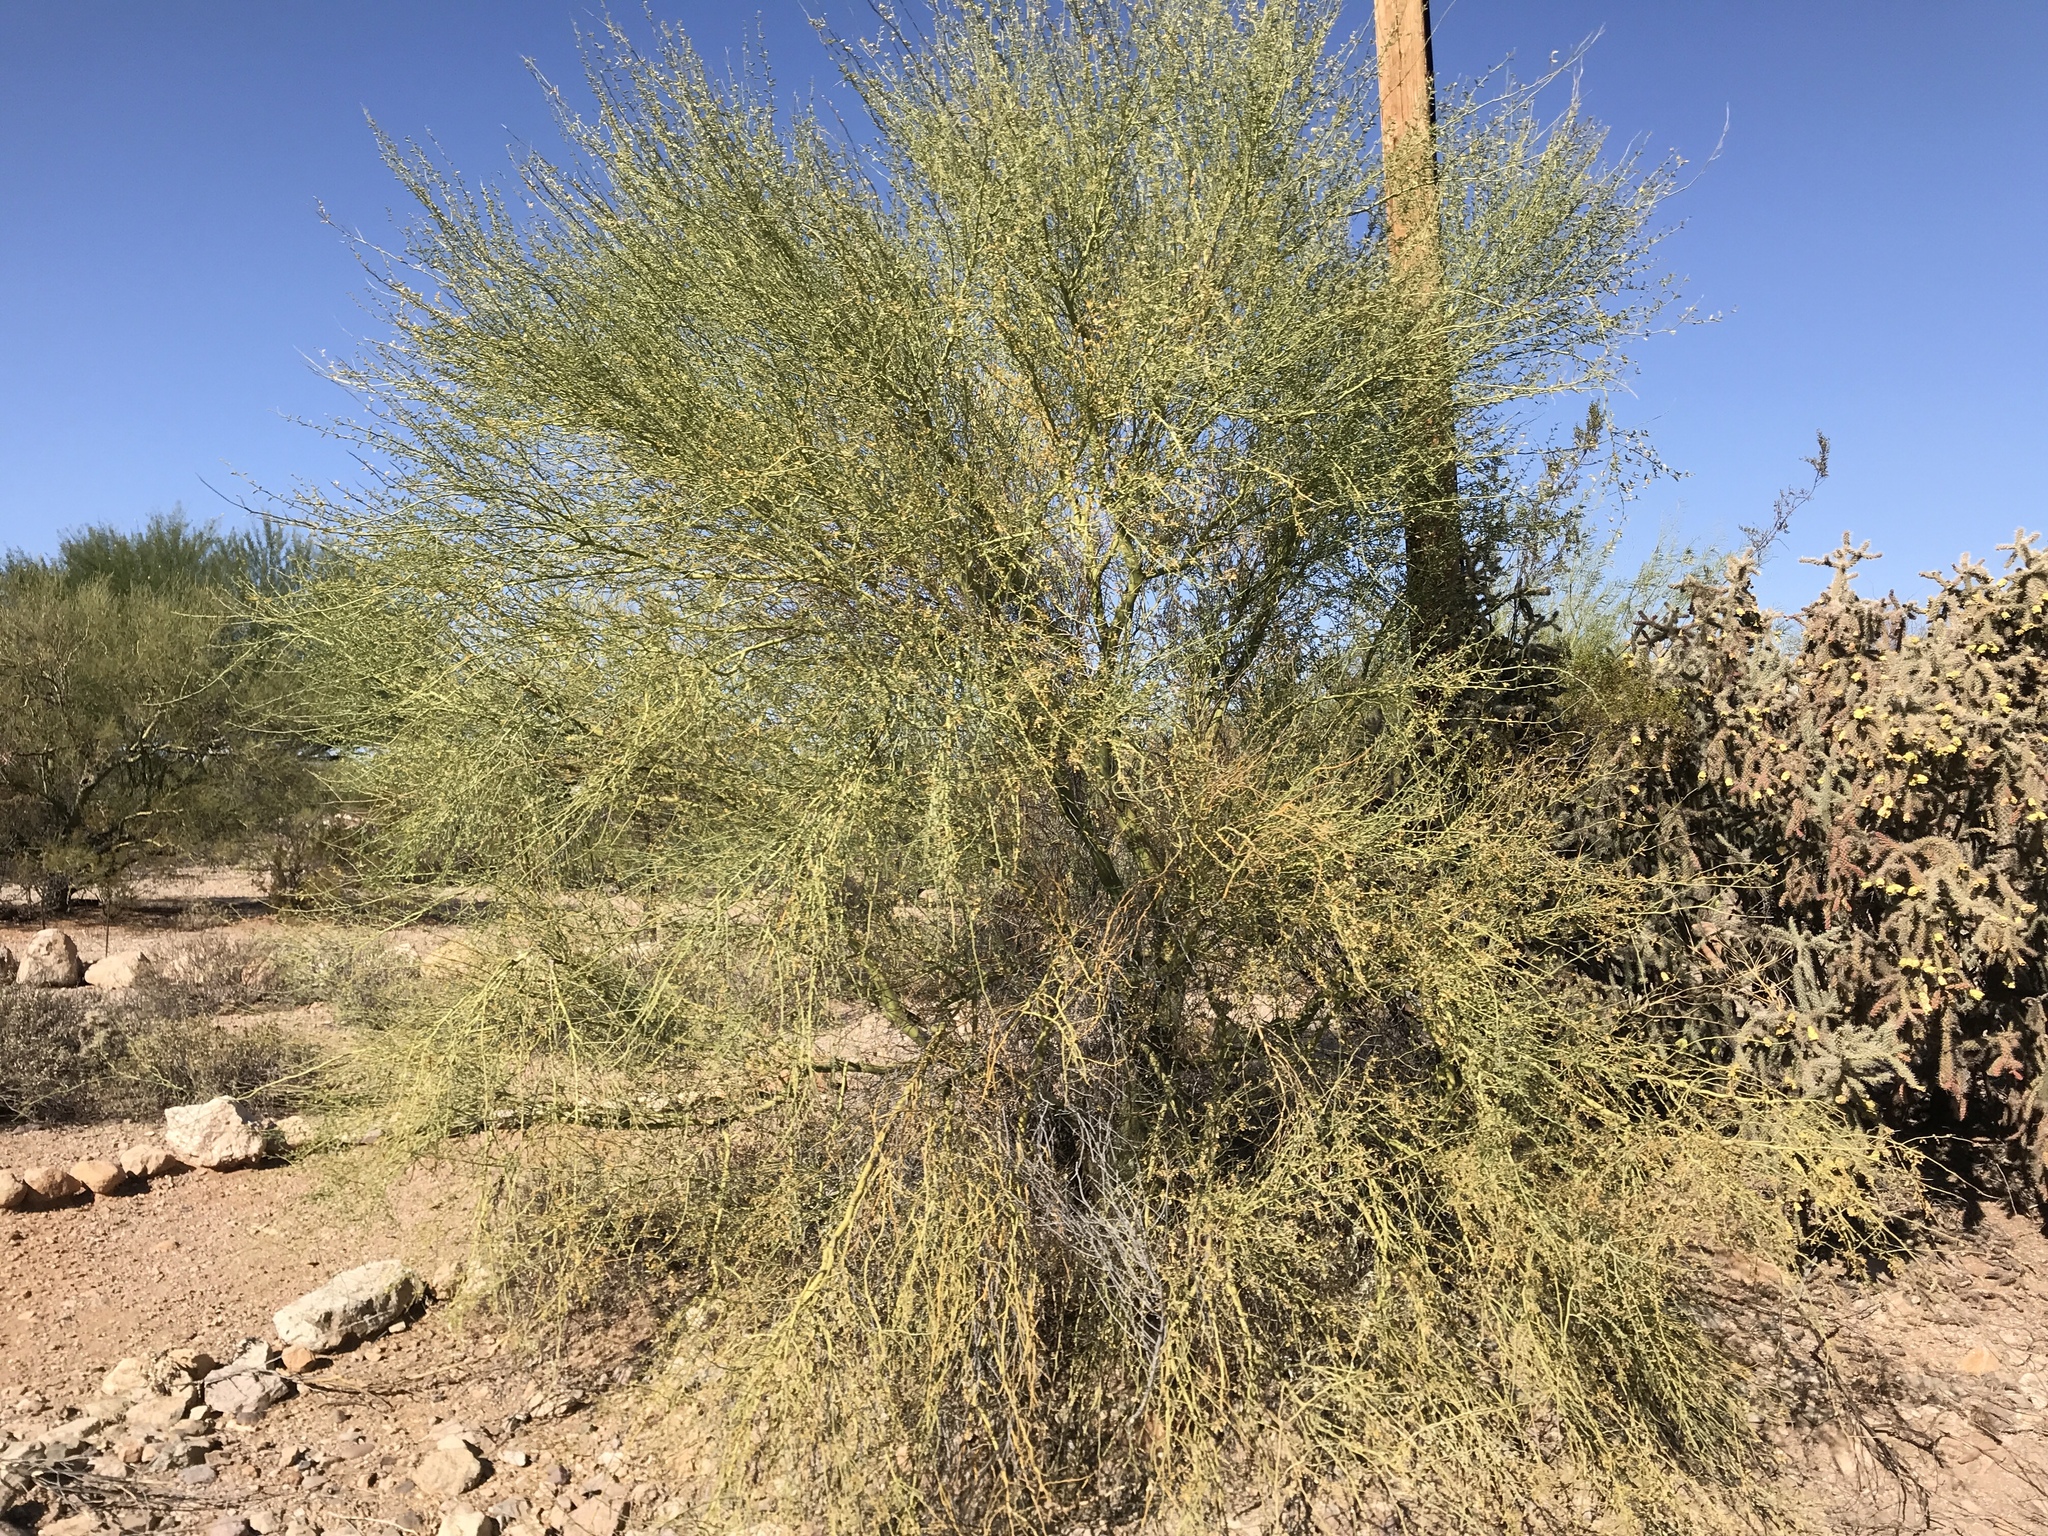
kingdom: Plantae
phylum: Tracheophyta
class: Magnoliopsida
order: Fabales
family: Fabaceae
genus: Parkinsonia
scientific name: Parkinsonia florida
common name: Blue paloverde
